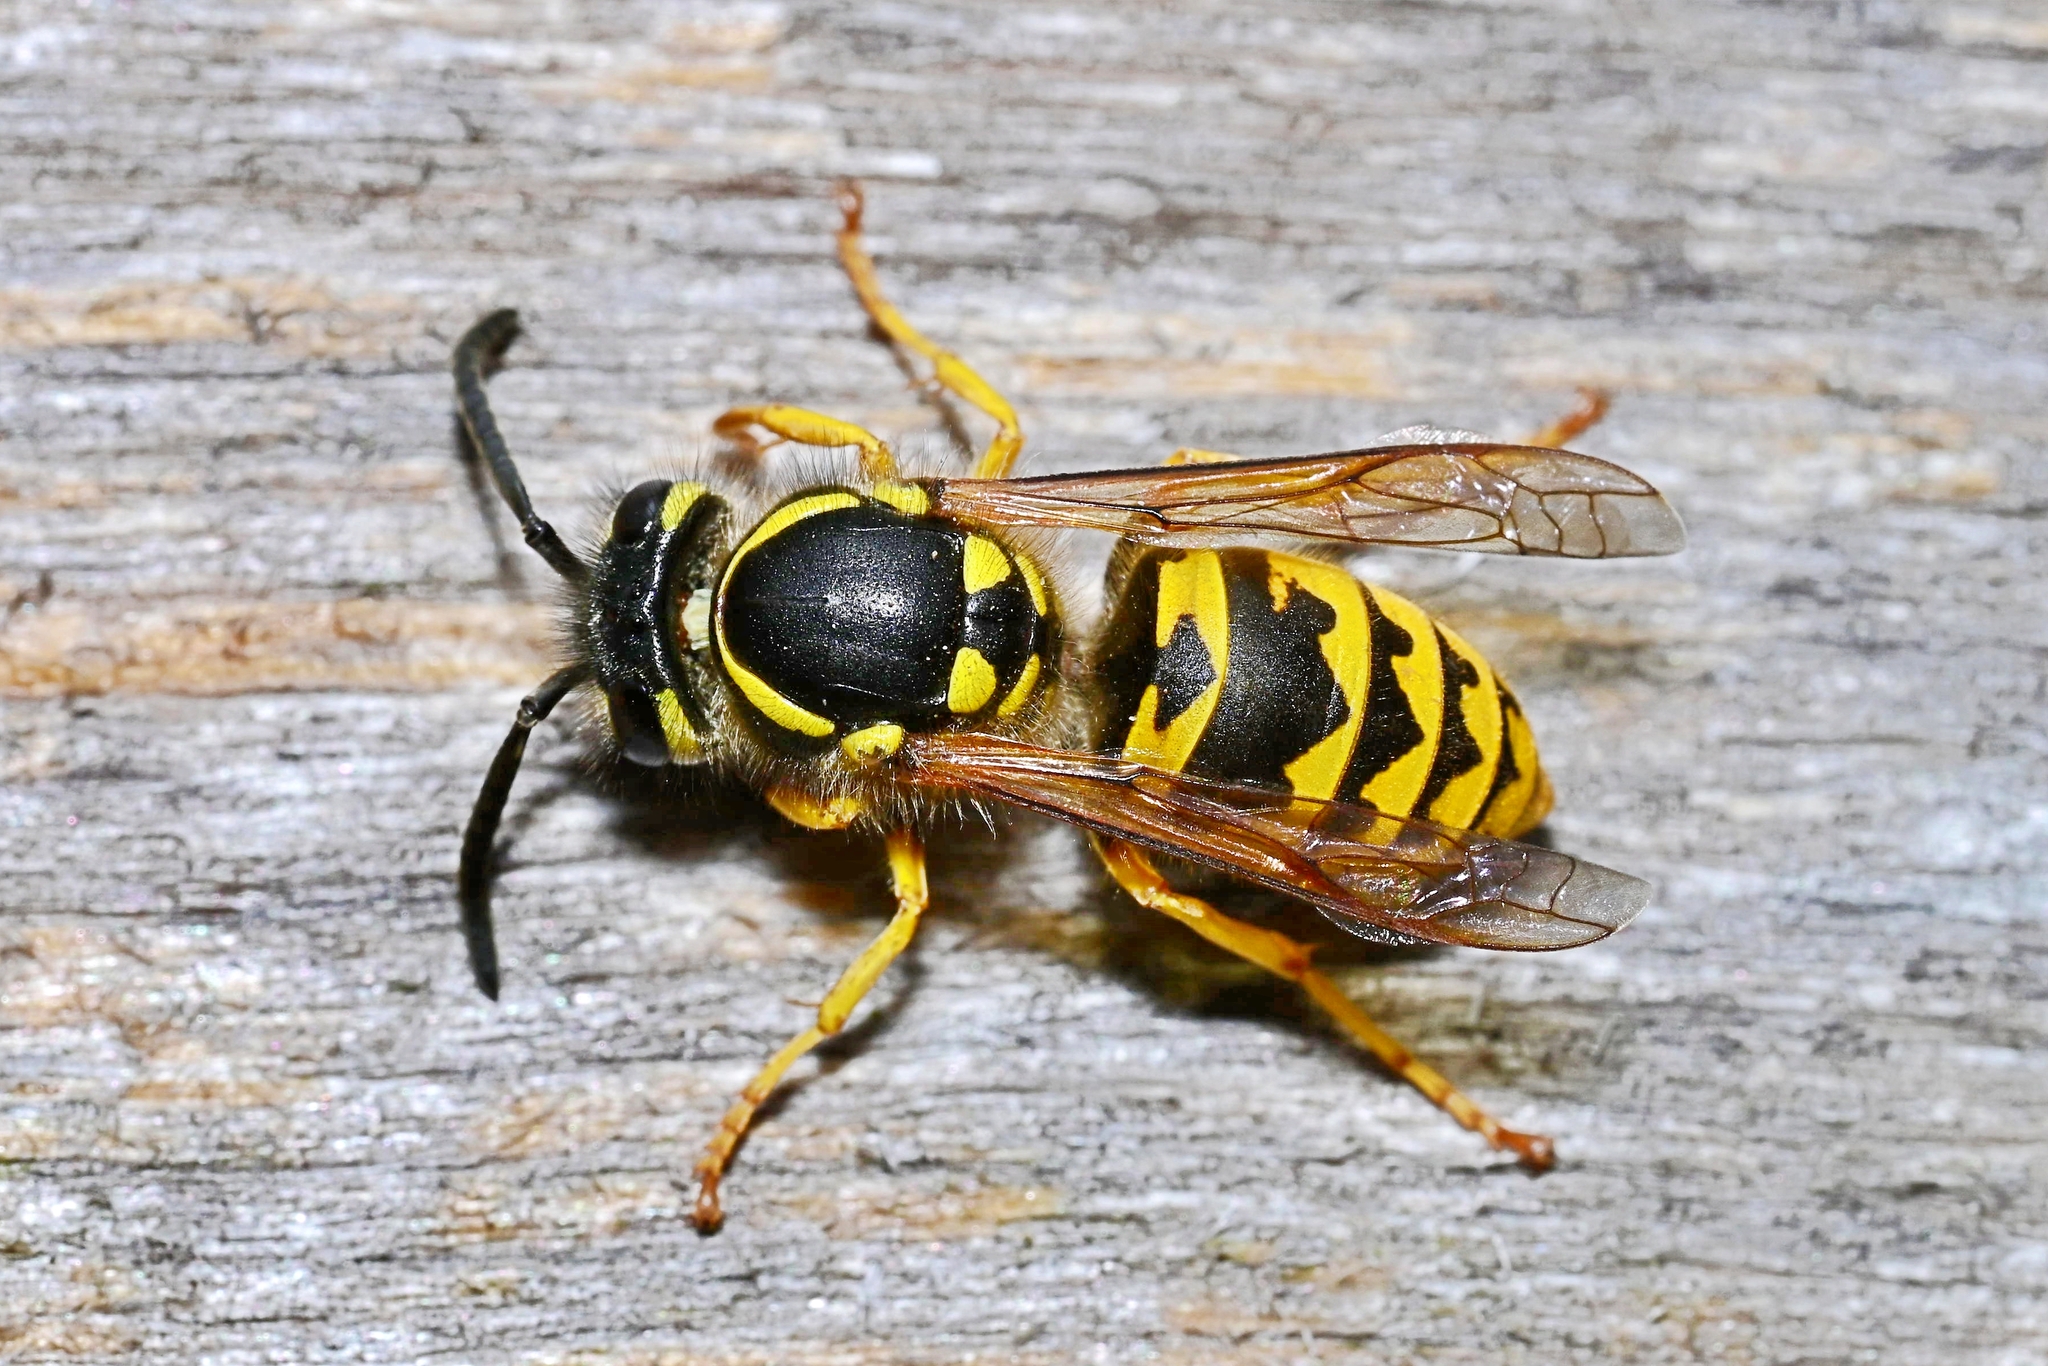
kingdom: Animalia
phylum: Arthropoda
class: Insecta
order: Hymenoptera
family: Vespidae
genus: Vespula
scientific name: Vespula germanica
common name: German wasp
